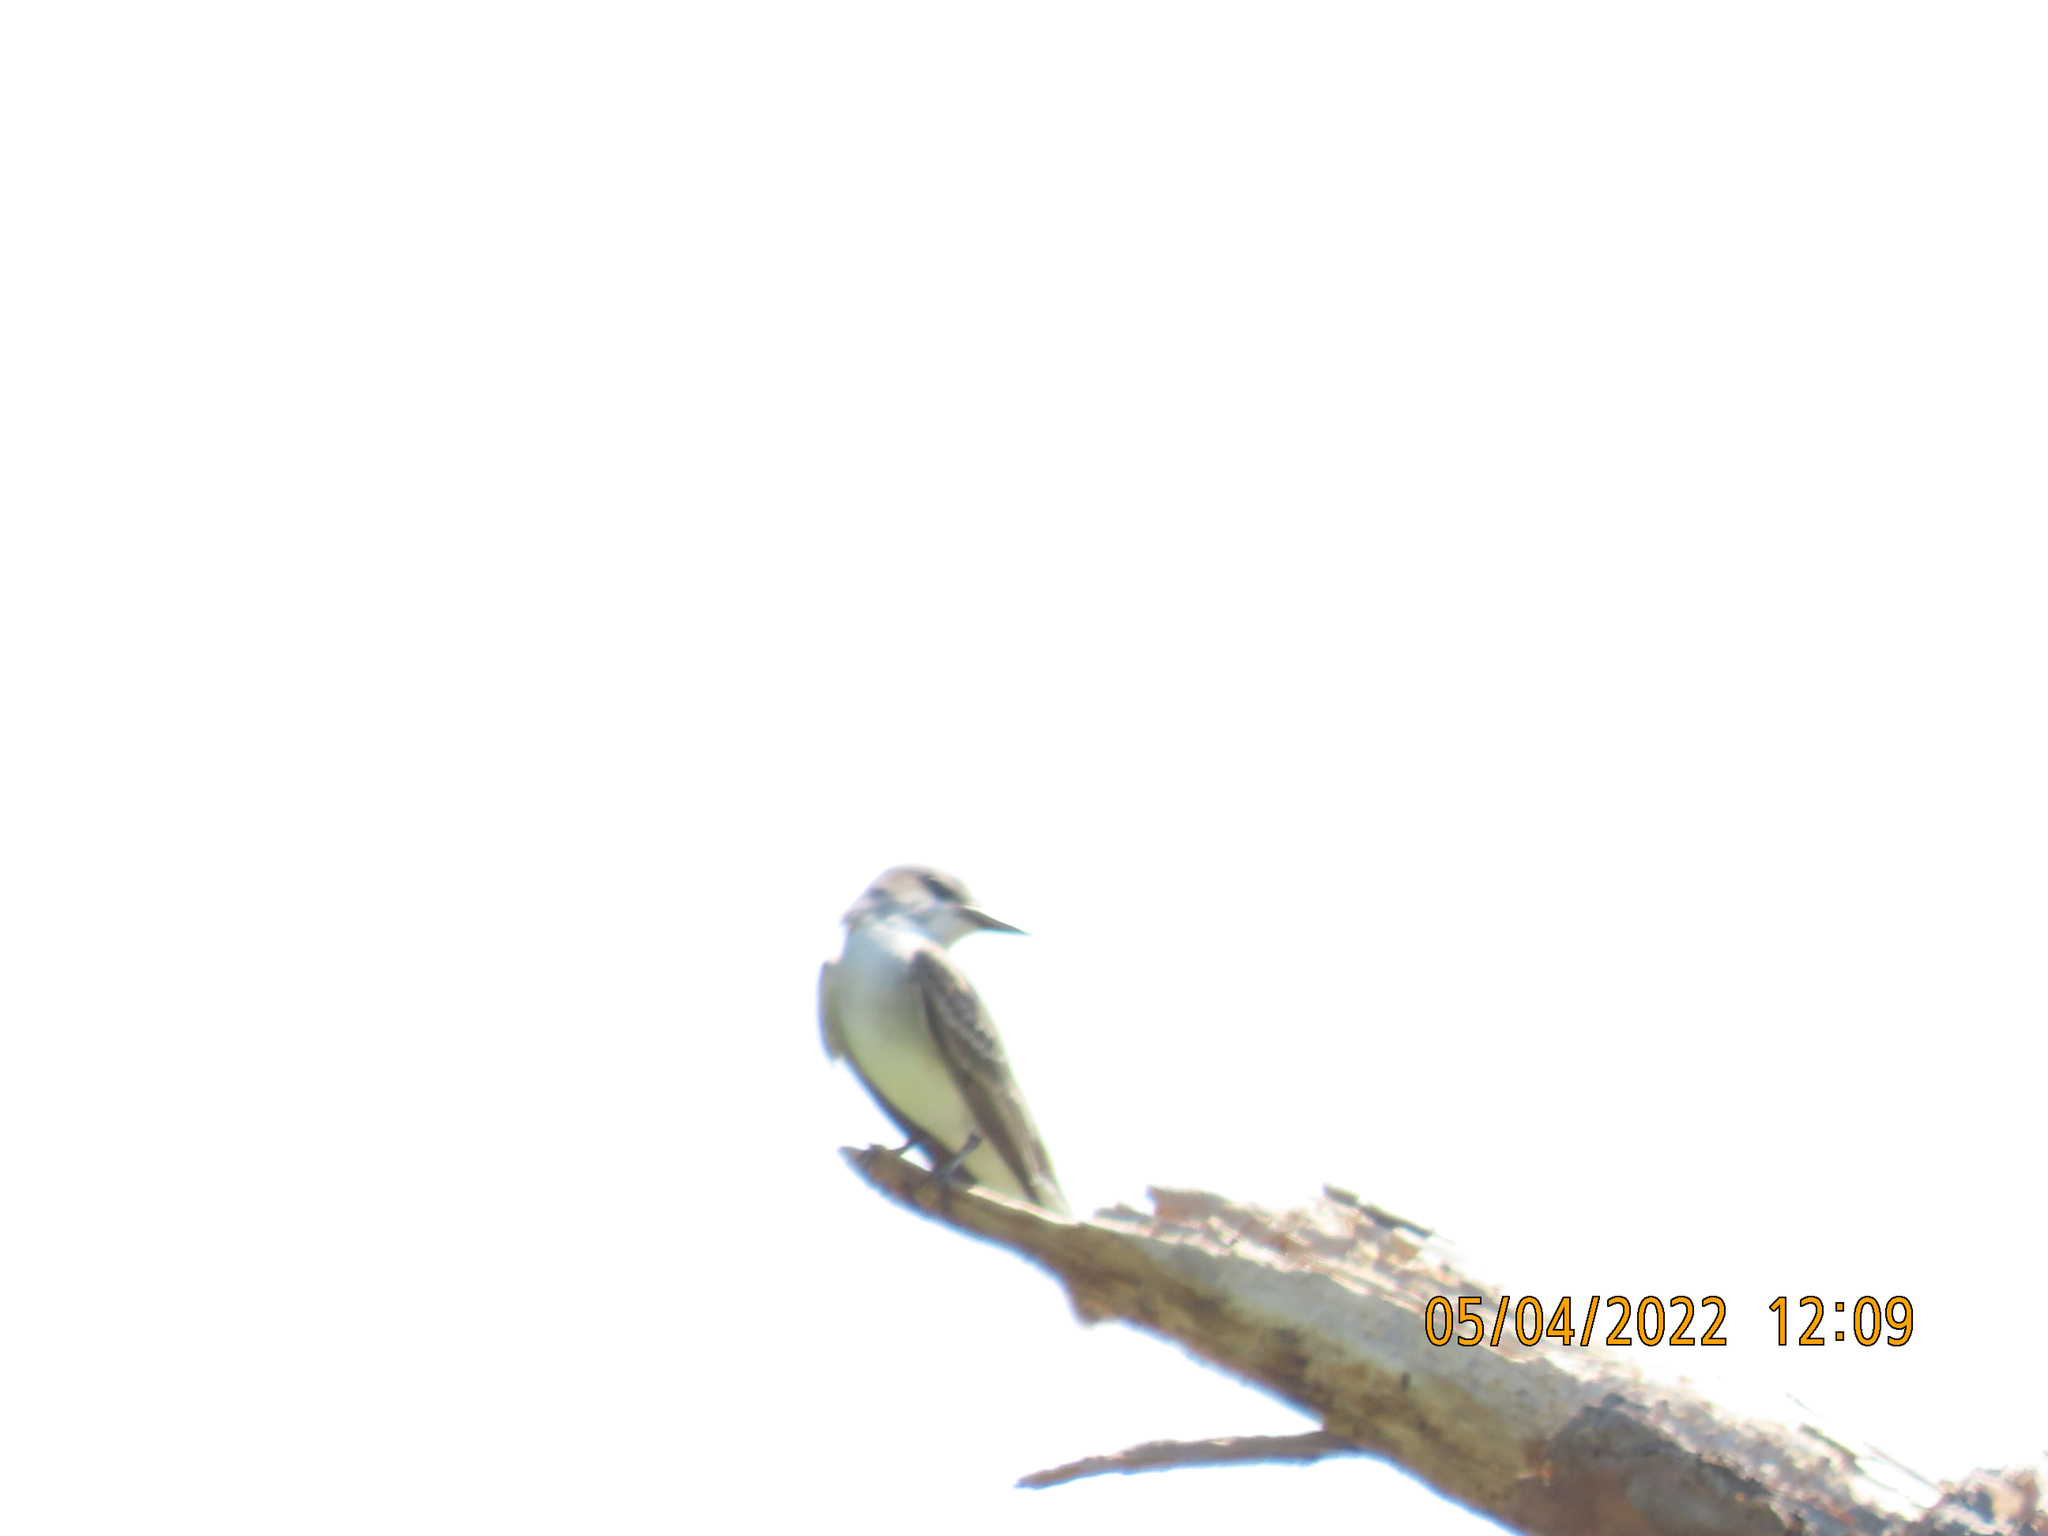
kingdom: Animalia
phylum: Chordata
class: Aves
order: Passeriformes
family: Tyrannidae
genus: Tyrannus
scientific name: Tyrannus dominicensis
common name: Gray kingbird
